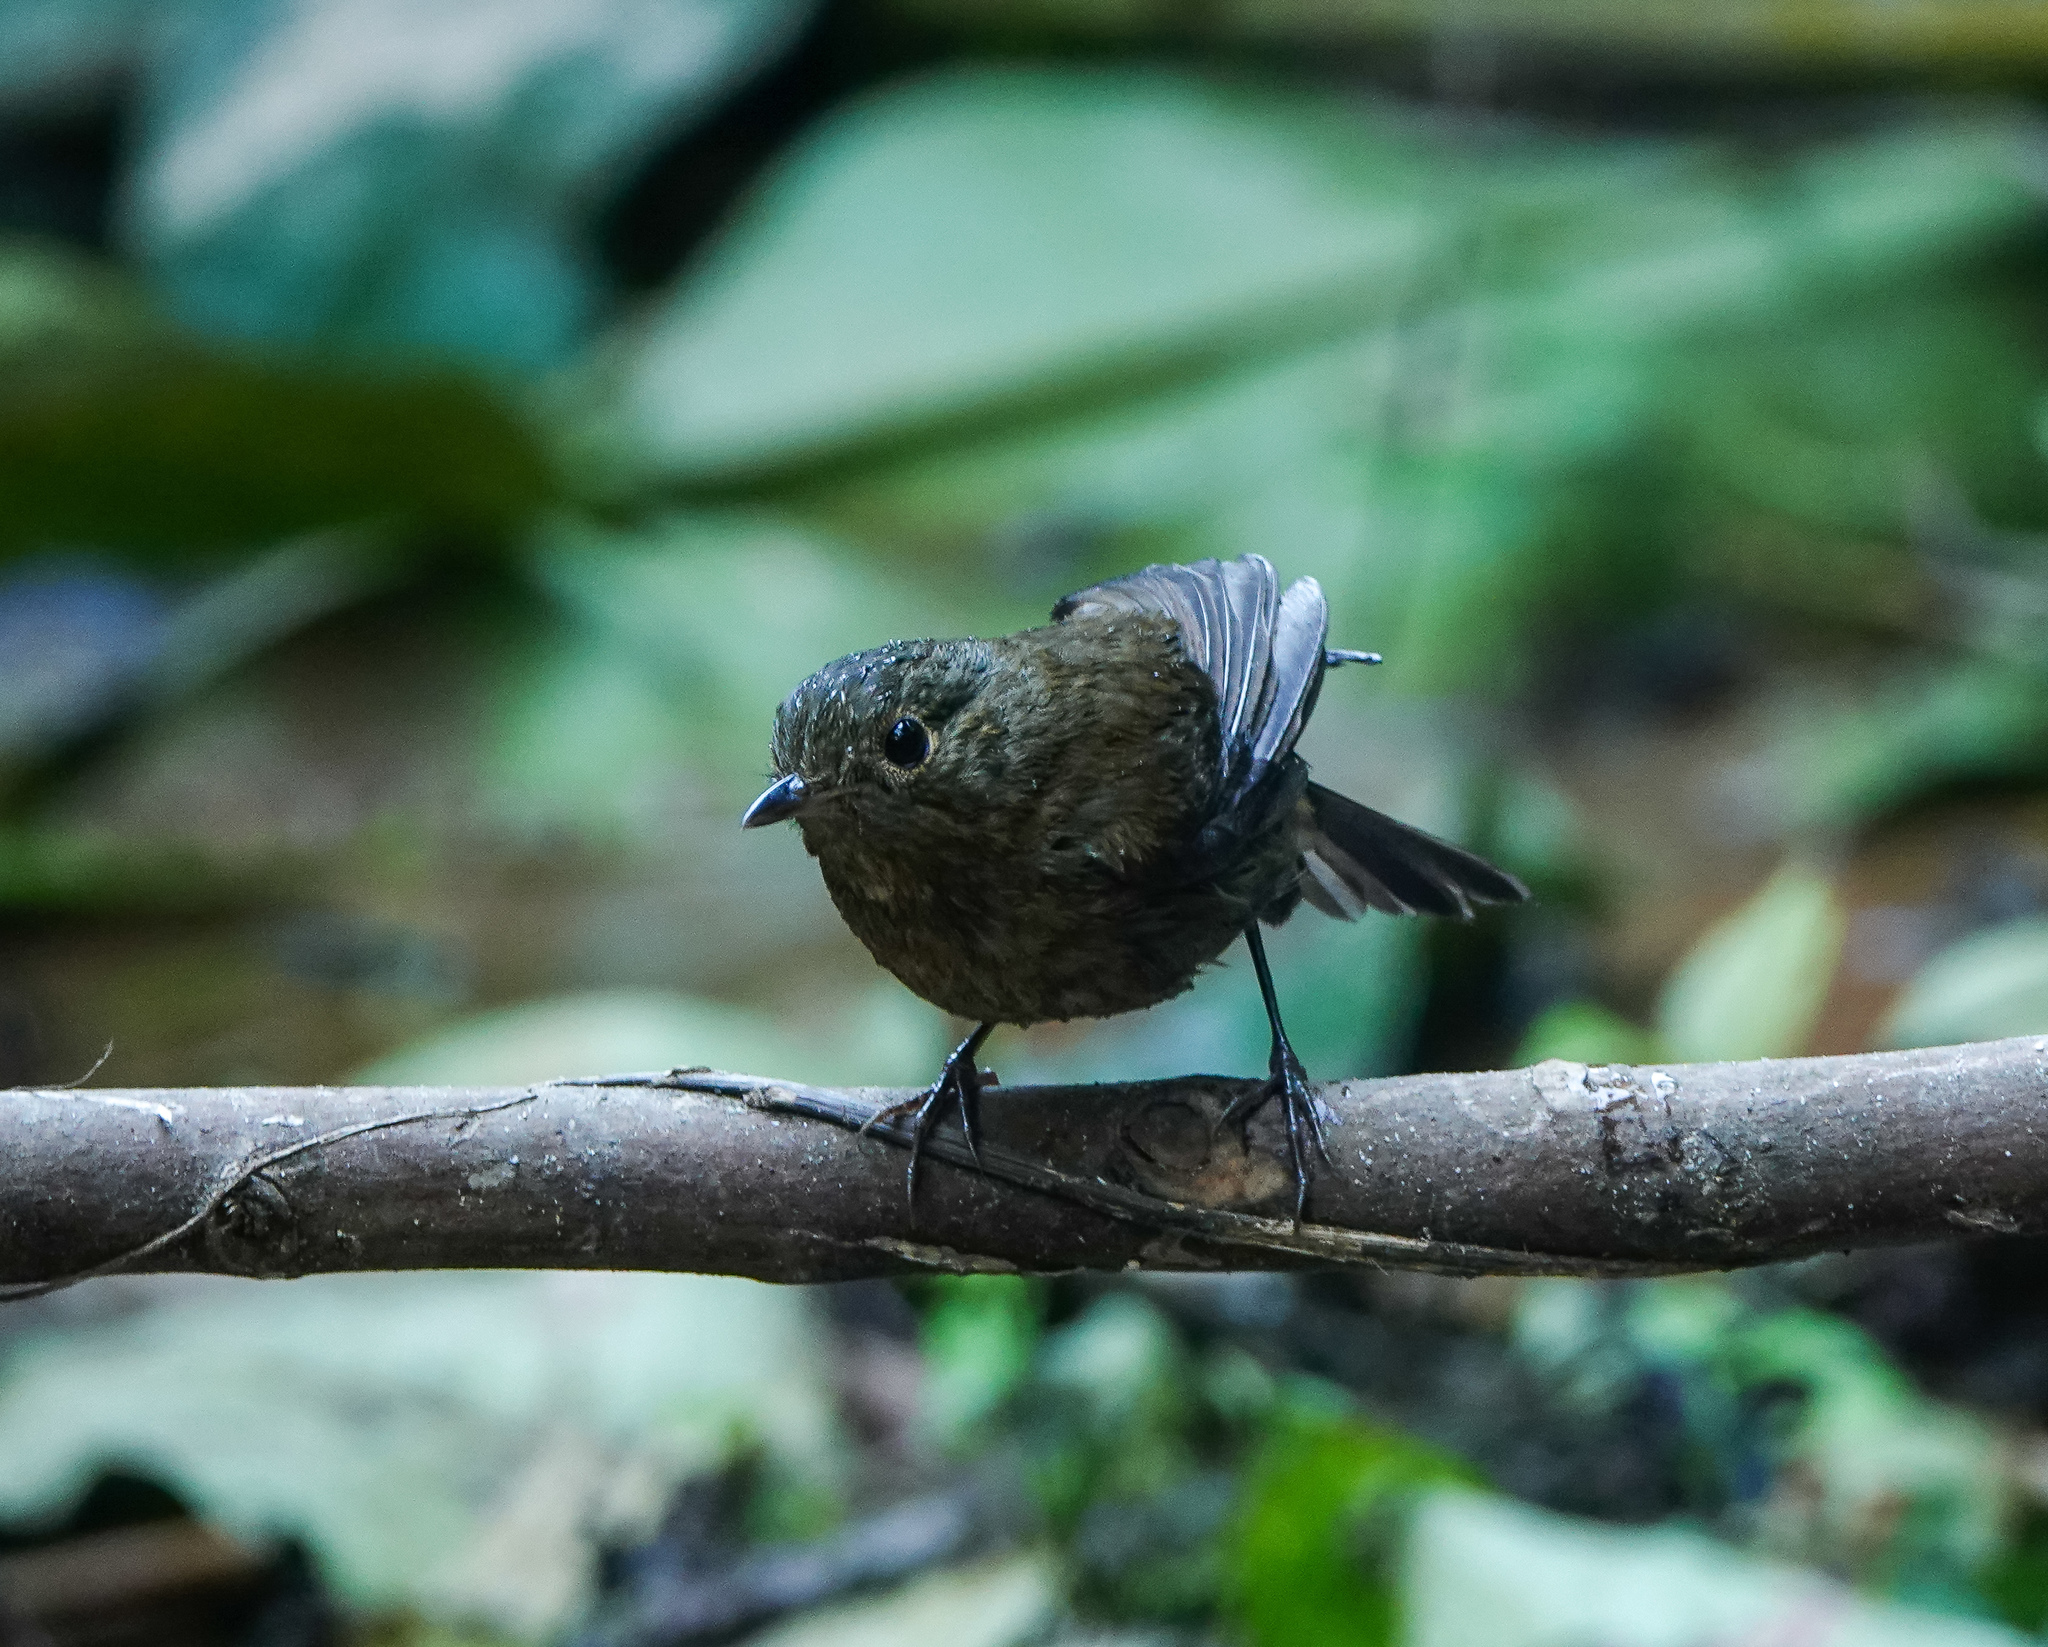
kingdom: Animalia
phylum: Chordata
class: Aves
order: Passeriformes
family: Muscicapidae
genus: Myiomela
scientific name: Myiomela leucura
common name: White-tailed robin
